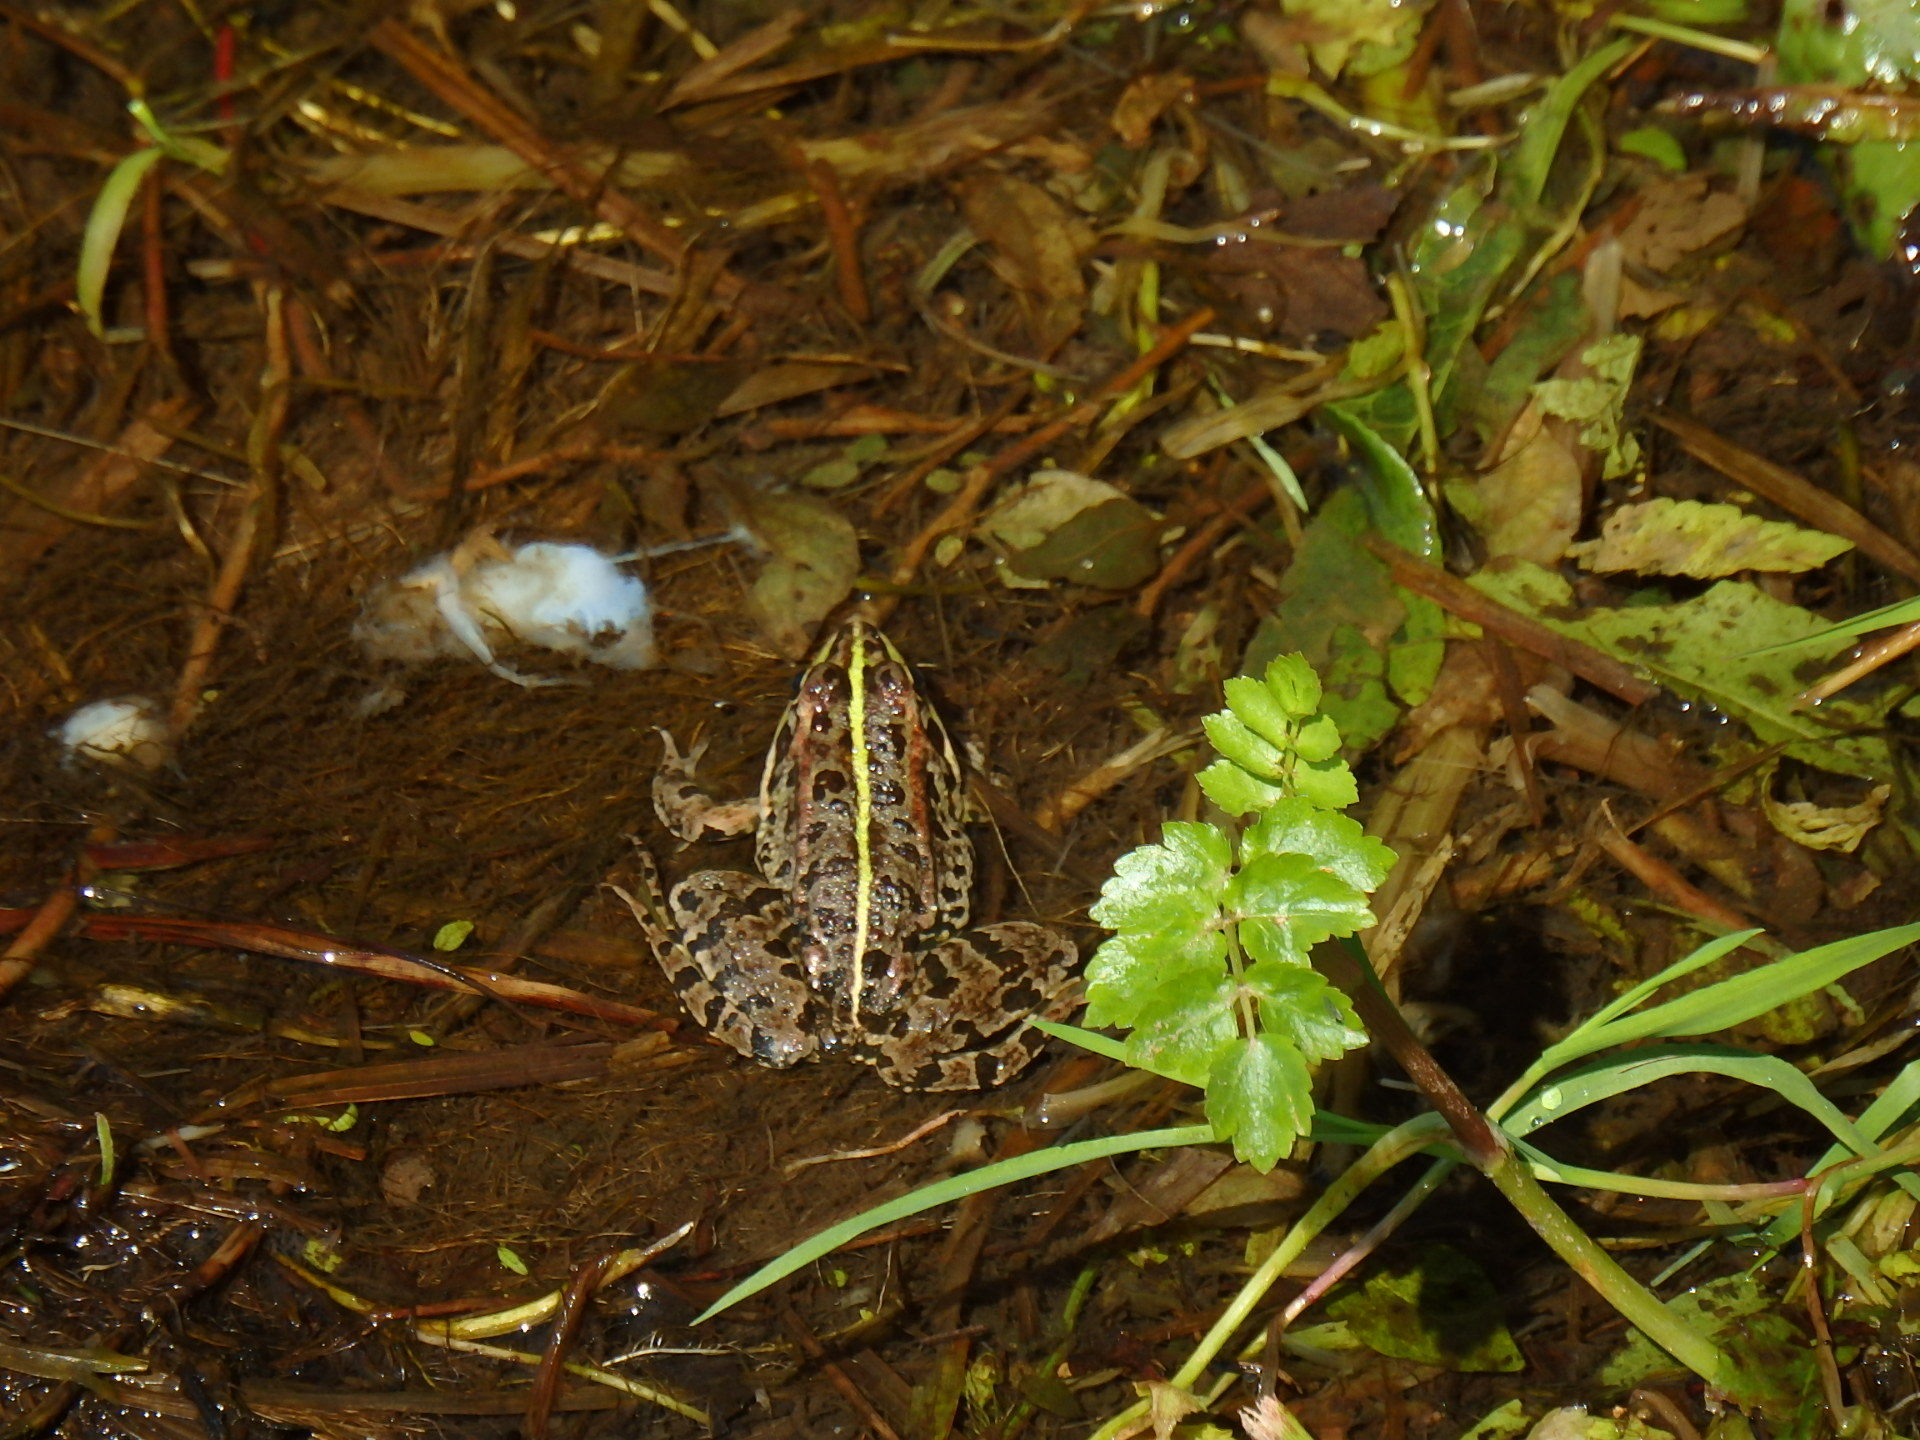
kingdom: Animalia
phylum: Chordata
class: Amphibia
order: Anura
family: Ranidae
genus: Pelophylax
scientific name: Pelophylax perezi
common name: Perez's frog
